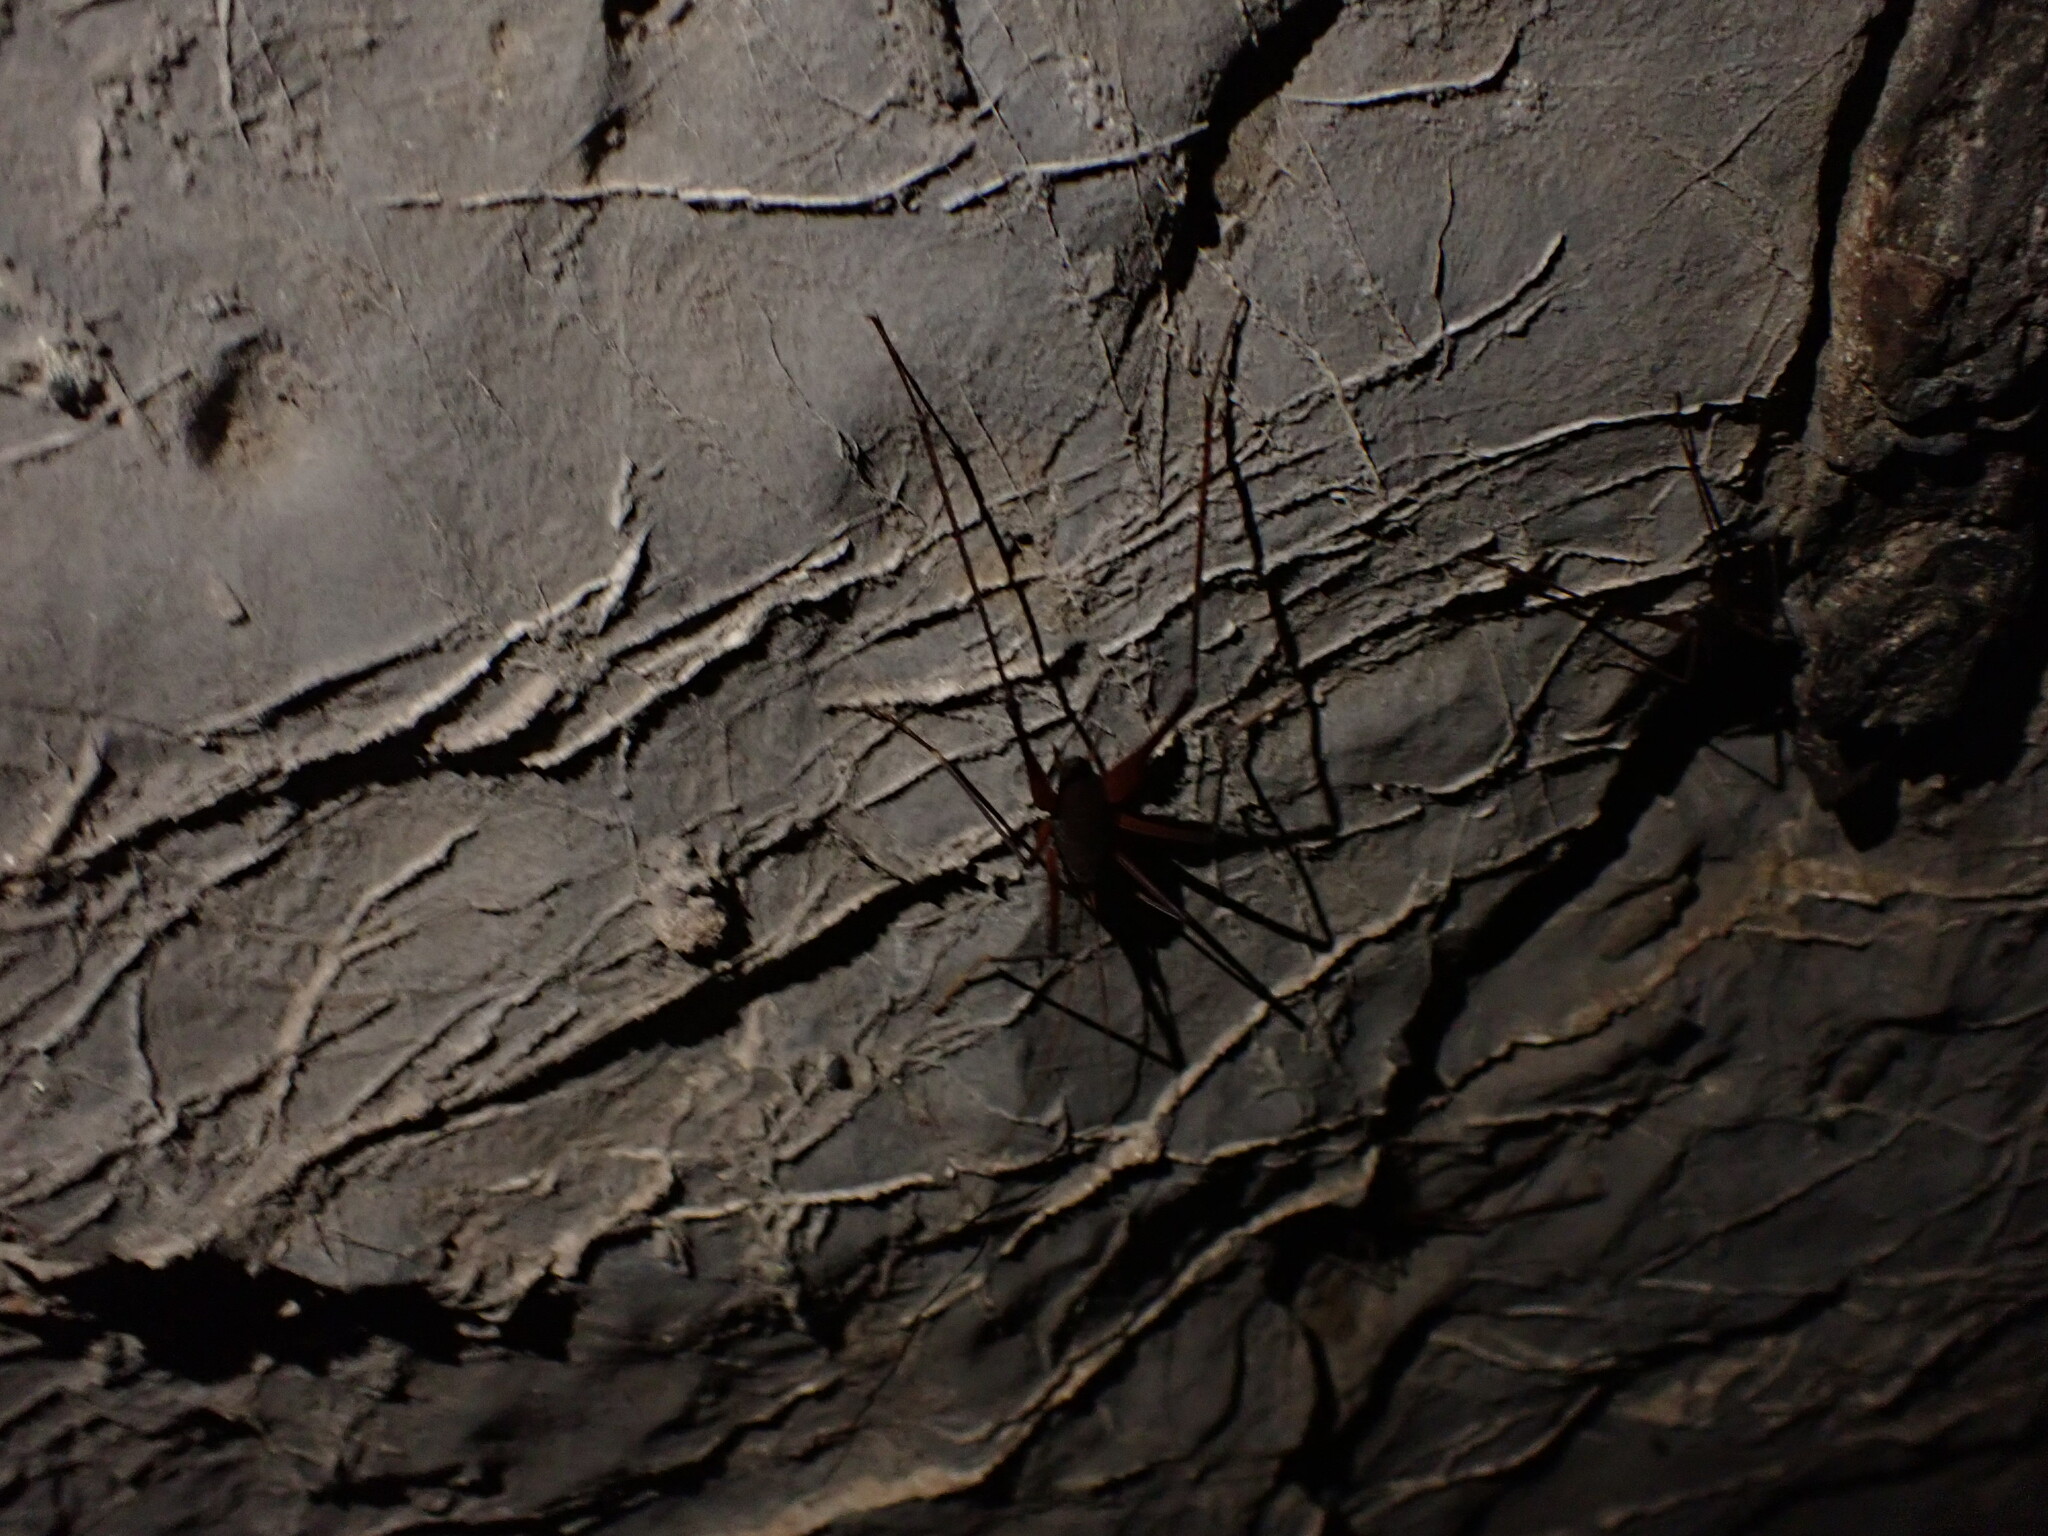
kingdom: Animalia
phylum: Arthropoda
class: Insecta
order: Orthoptera
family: Rhaphidophoridae
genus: Tropidischia
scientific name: Tropidischia xanthostoma
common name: Square-legged camel cricket
